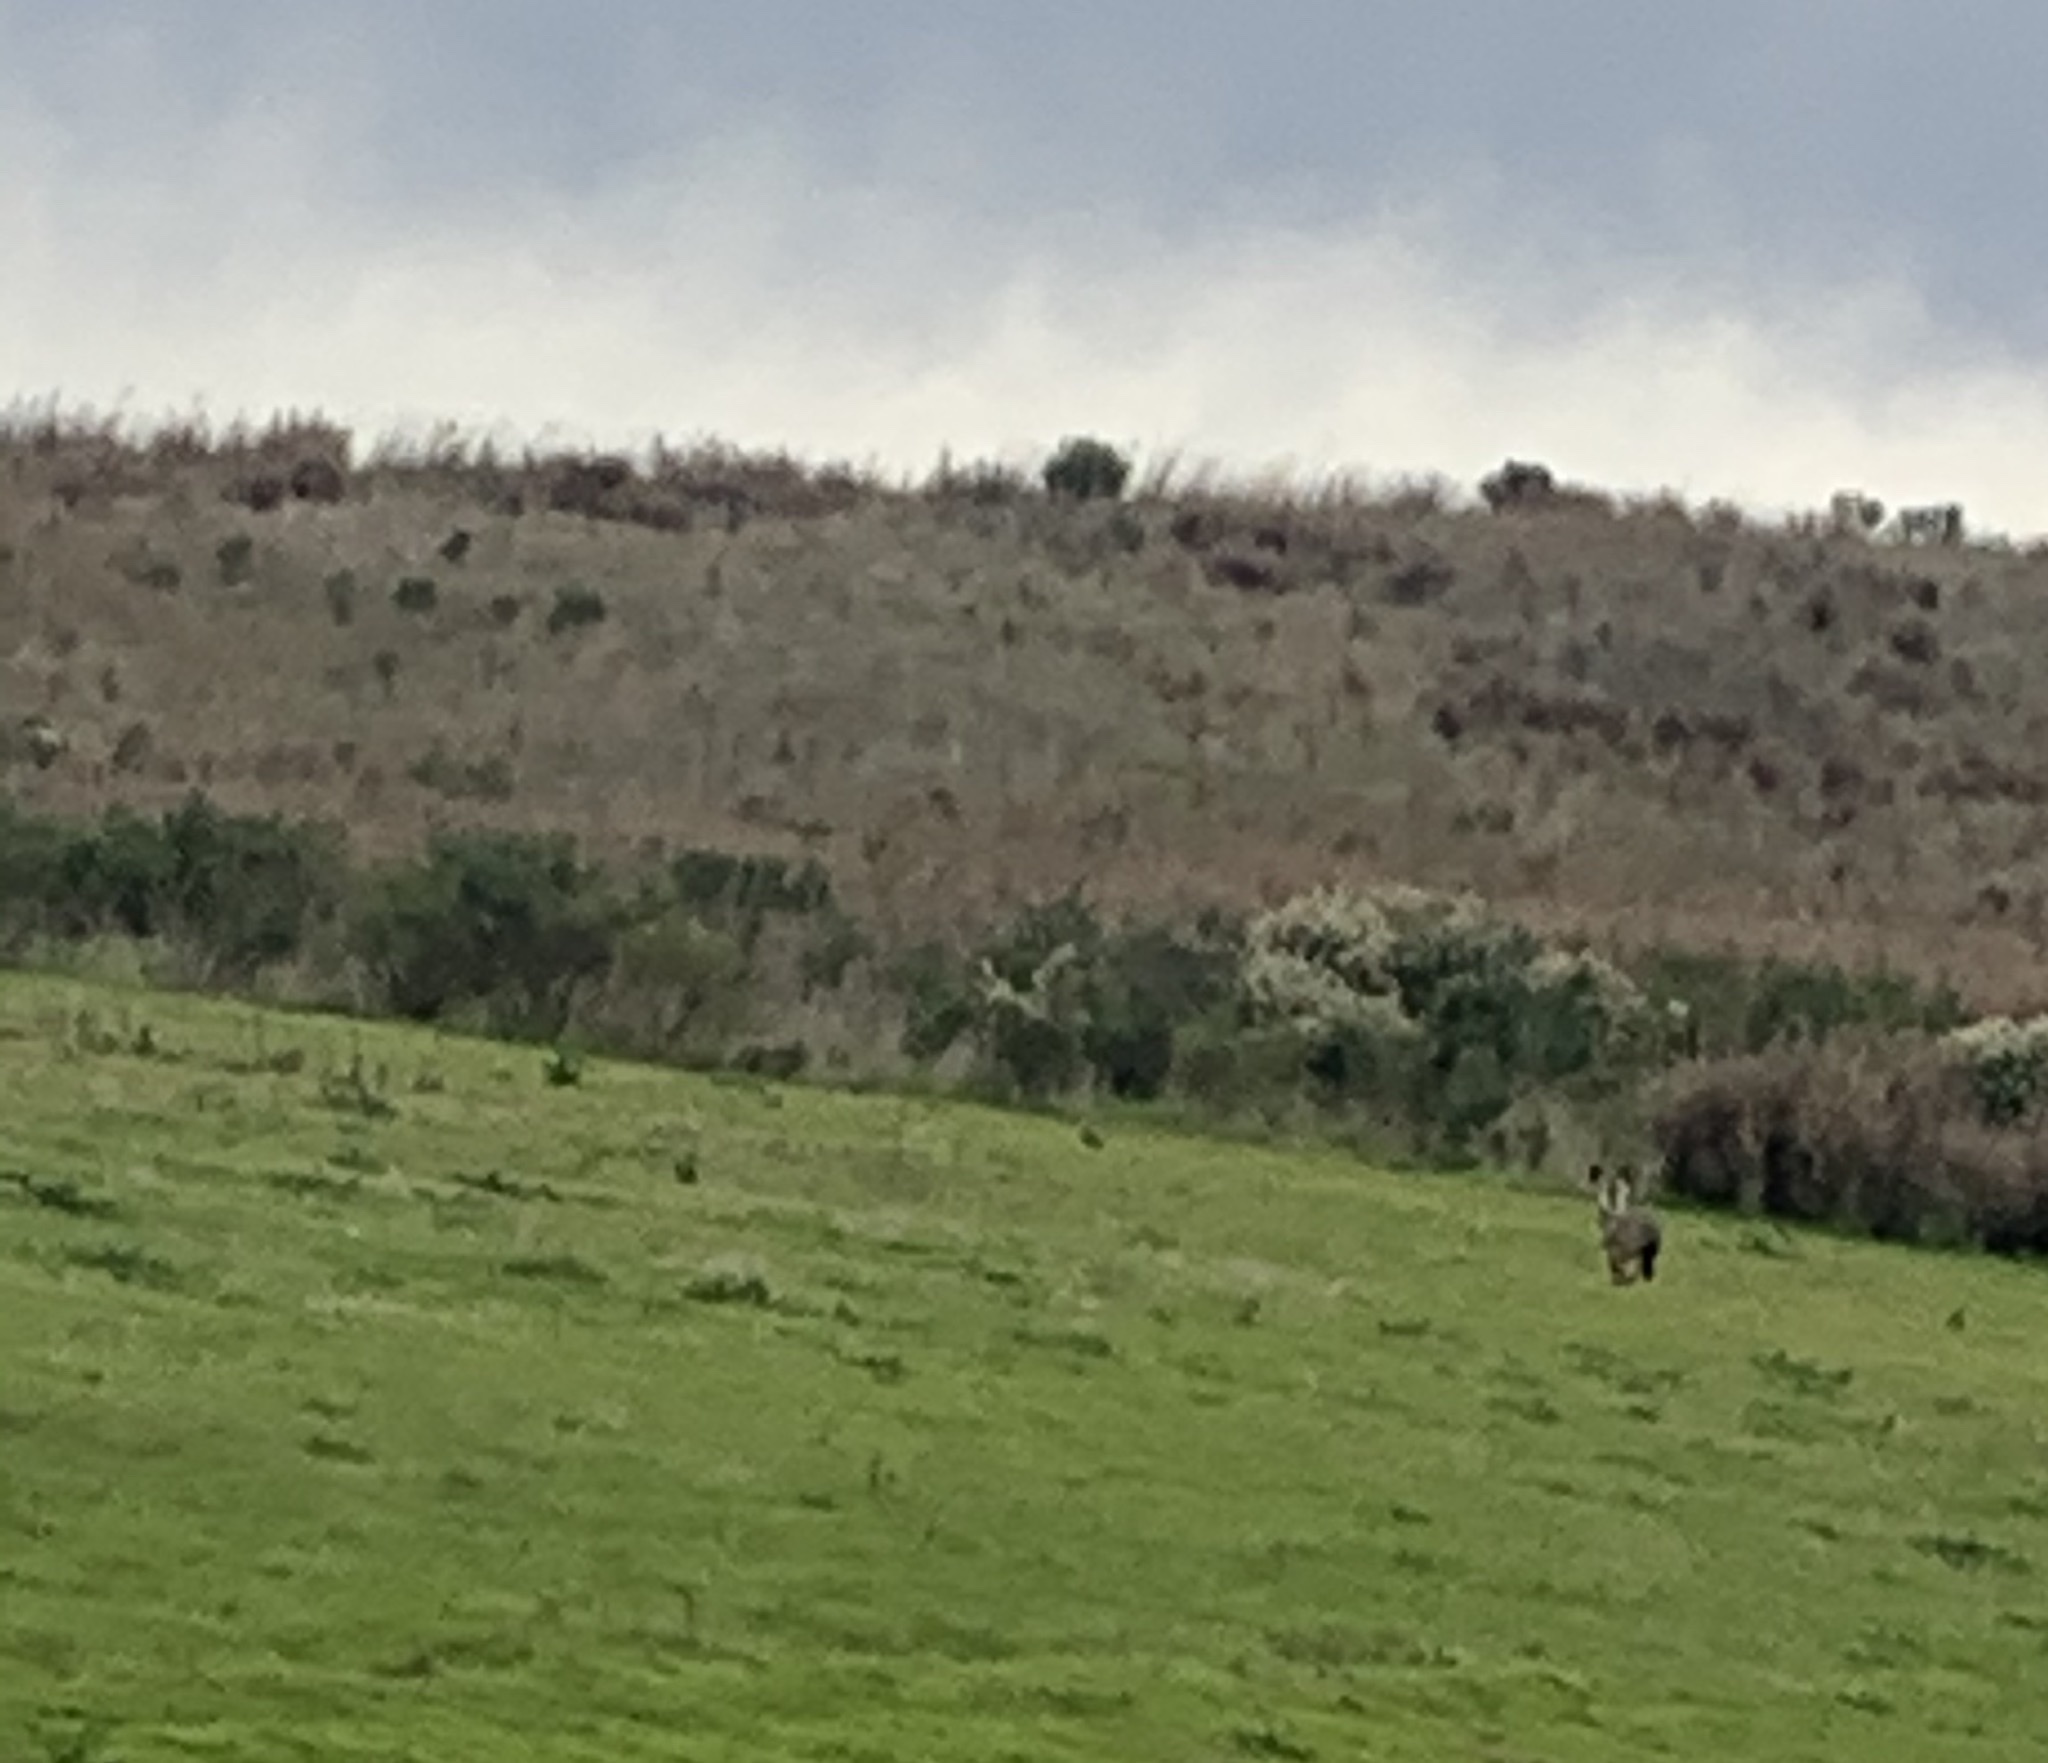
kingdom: Animalia
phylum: Chordata
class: Mammalia
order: Lagomorpha
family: Leporidae
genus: Lepus
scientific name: Lepus californicus
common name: Black-tailed jackrabbit
